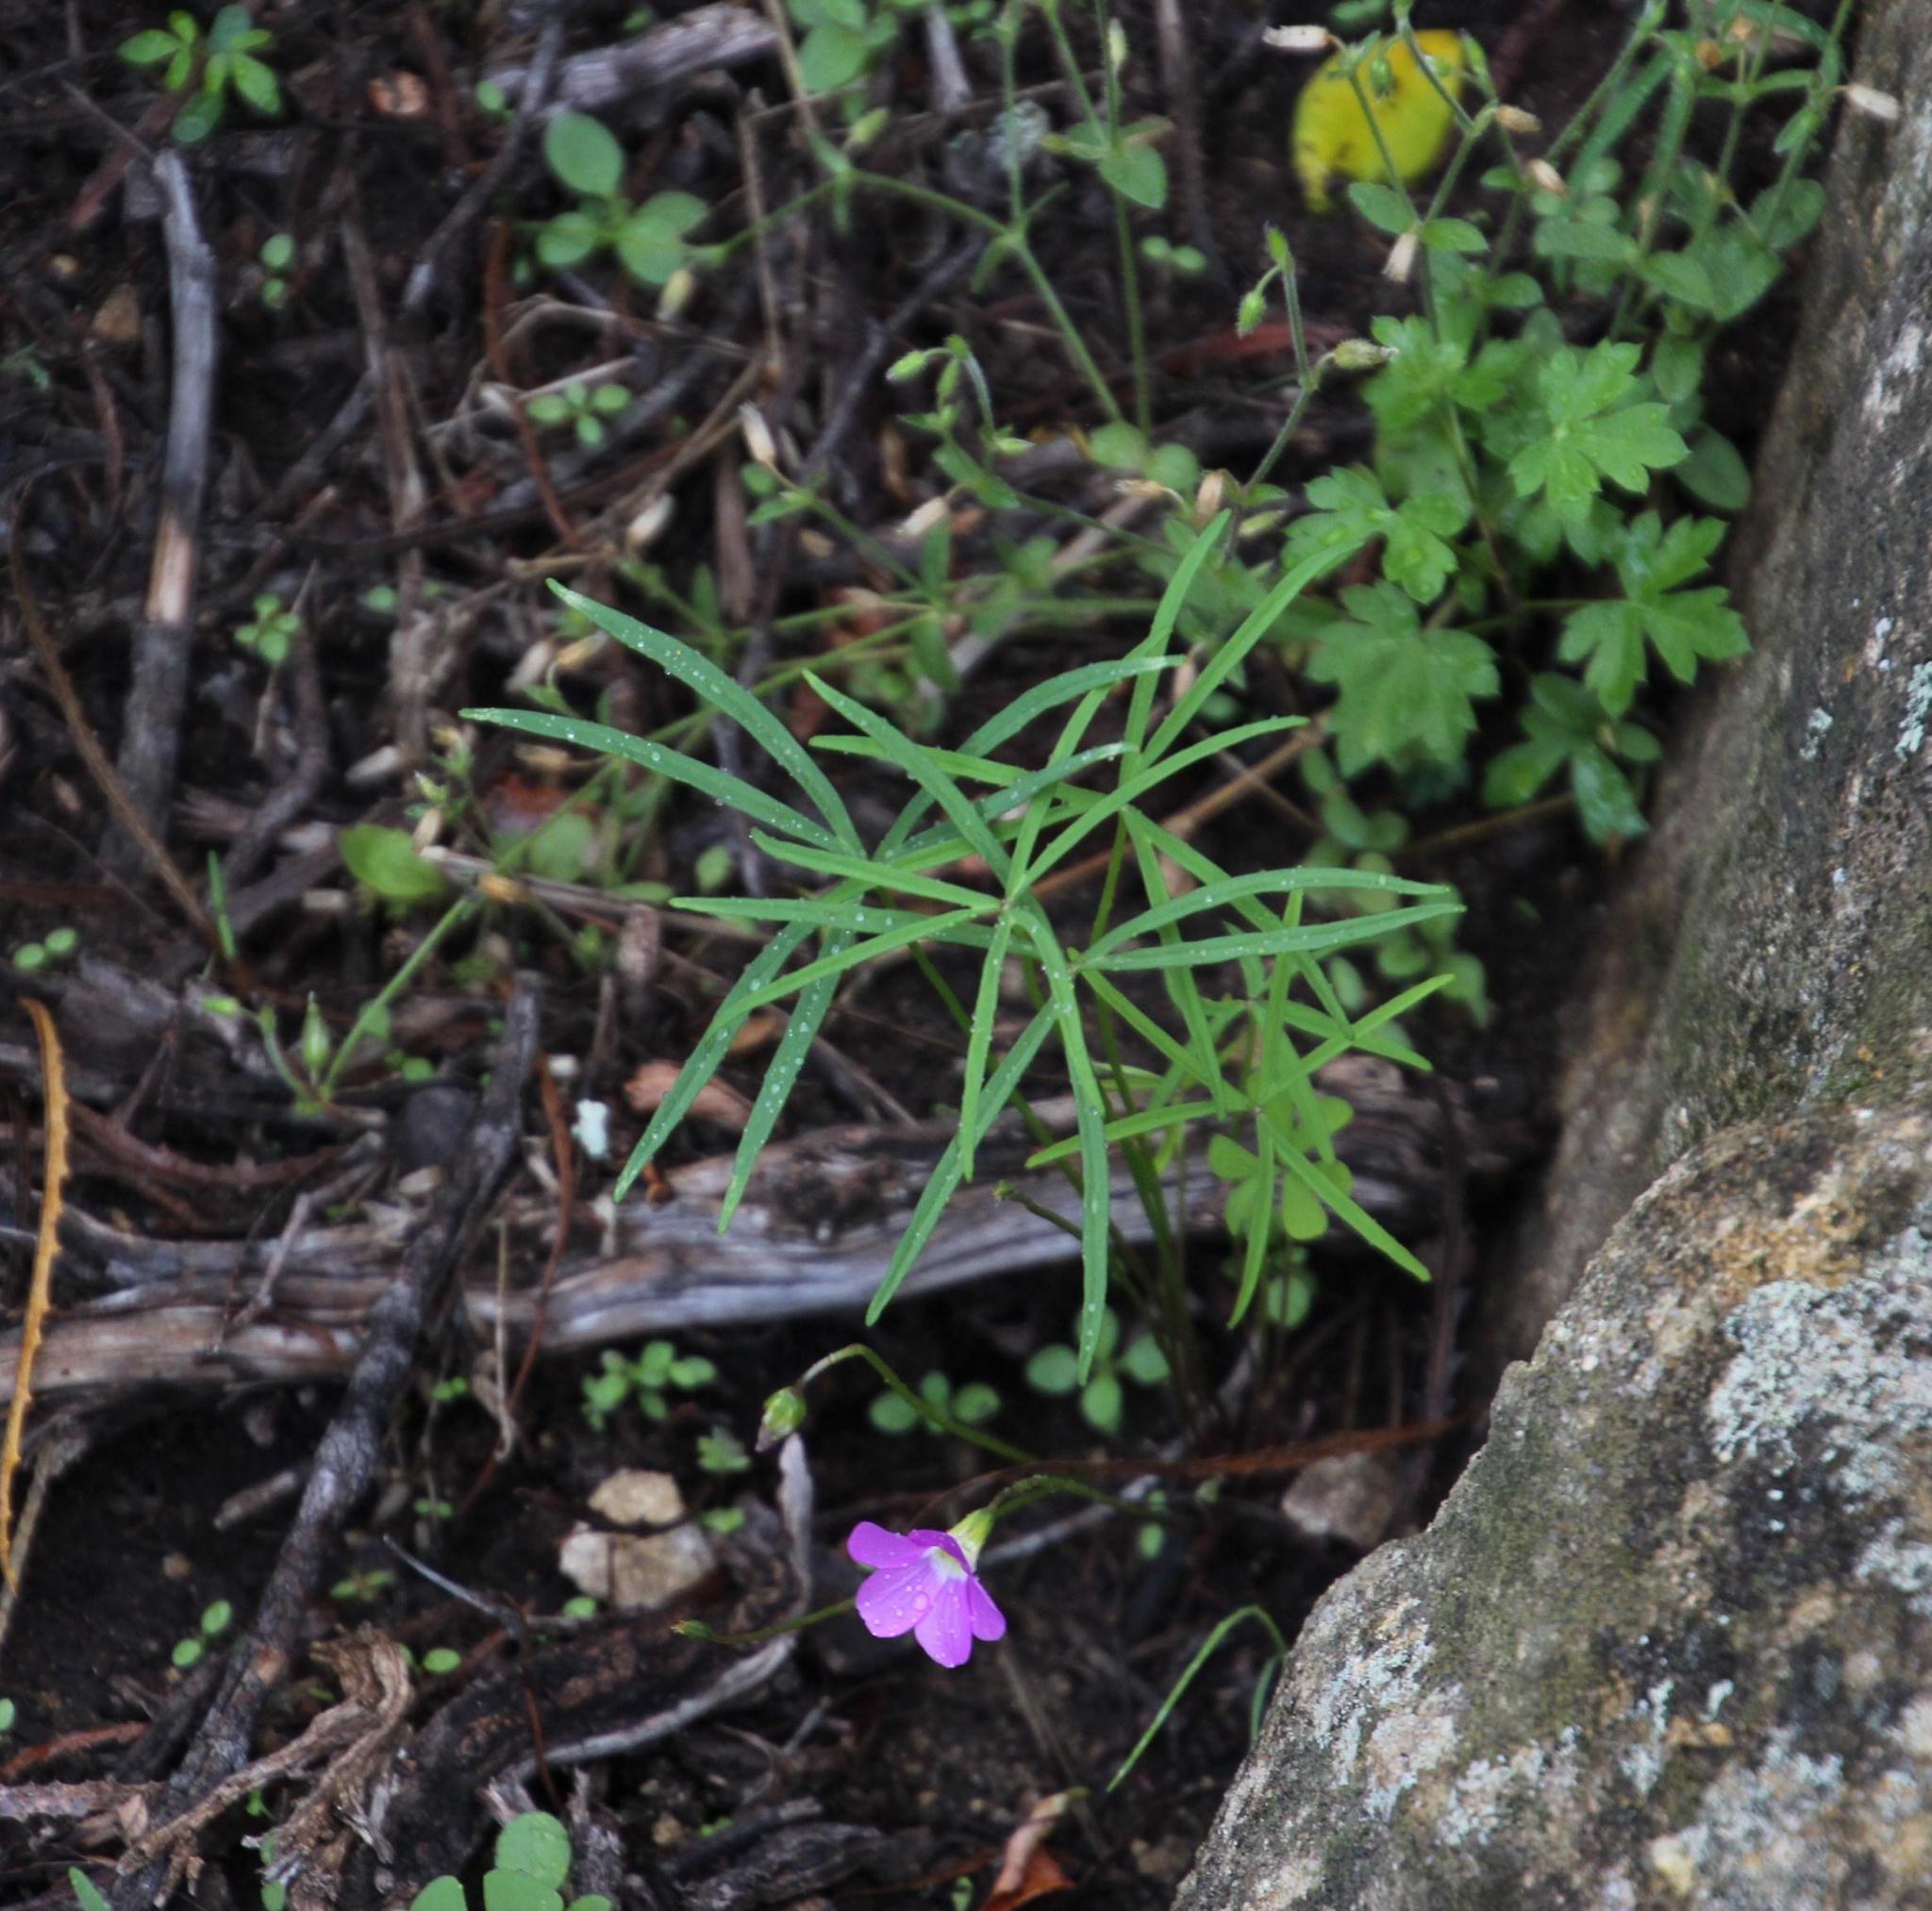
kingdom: Plantae
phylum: Tracheophyta
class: Magnoliopsida
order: Oxalidales
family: Oxalidaceae
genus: Oxalis
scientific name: Oxalis smithiana
